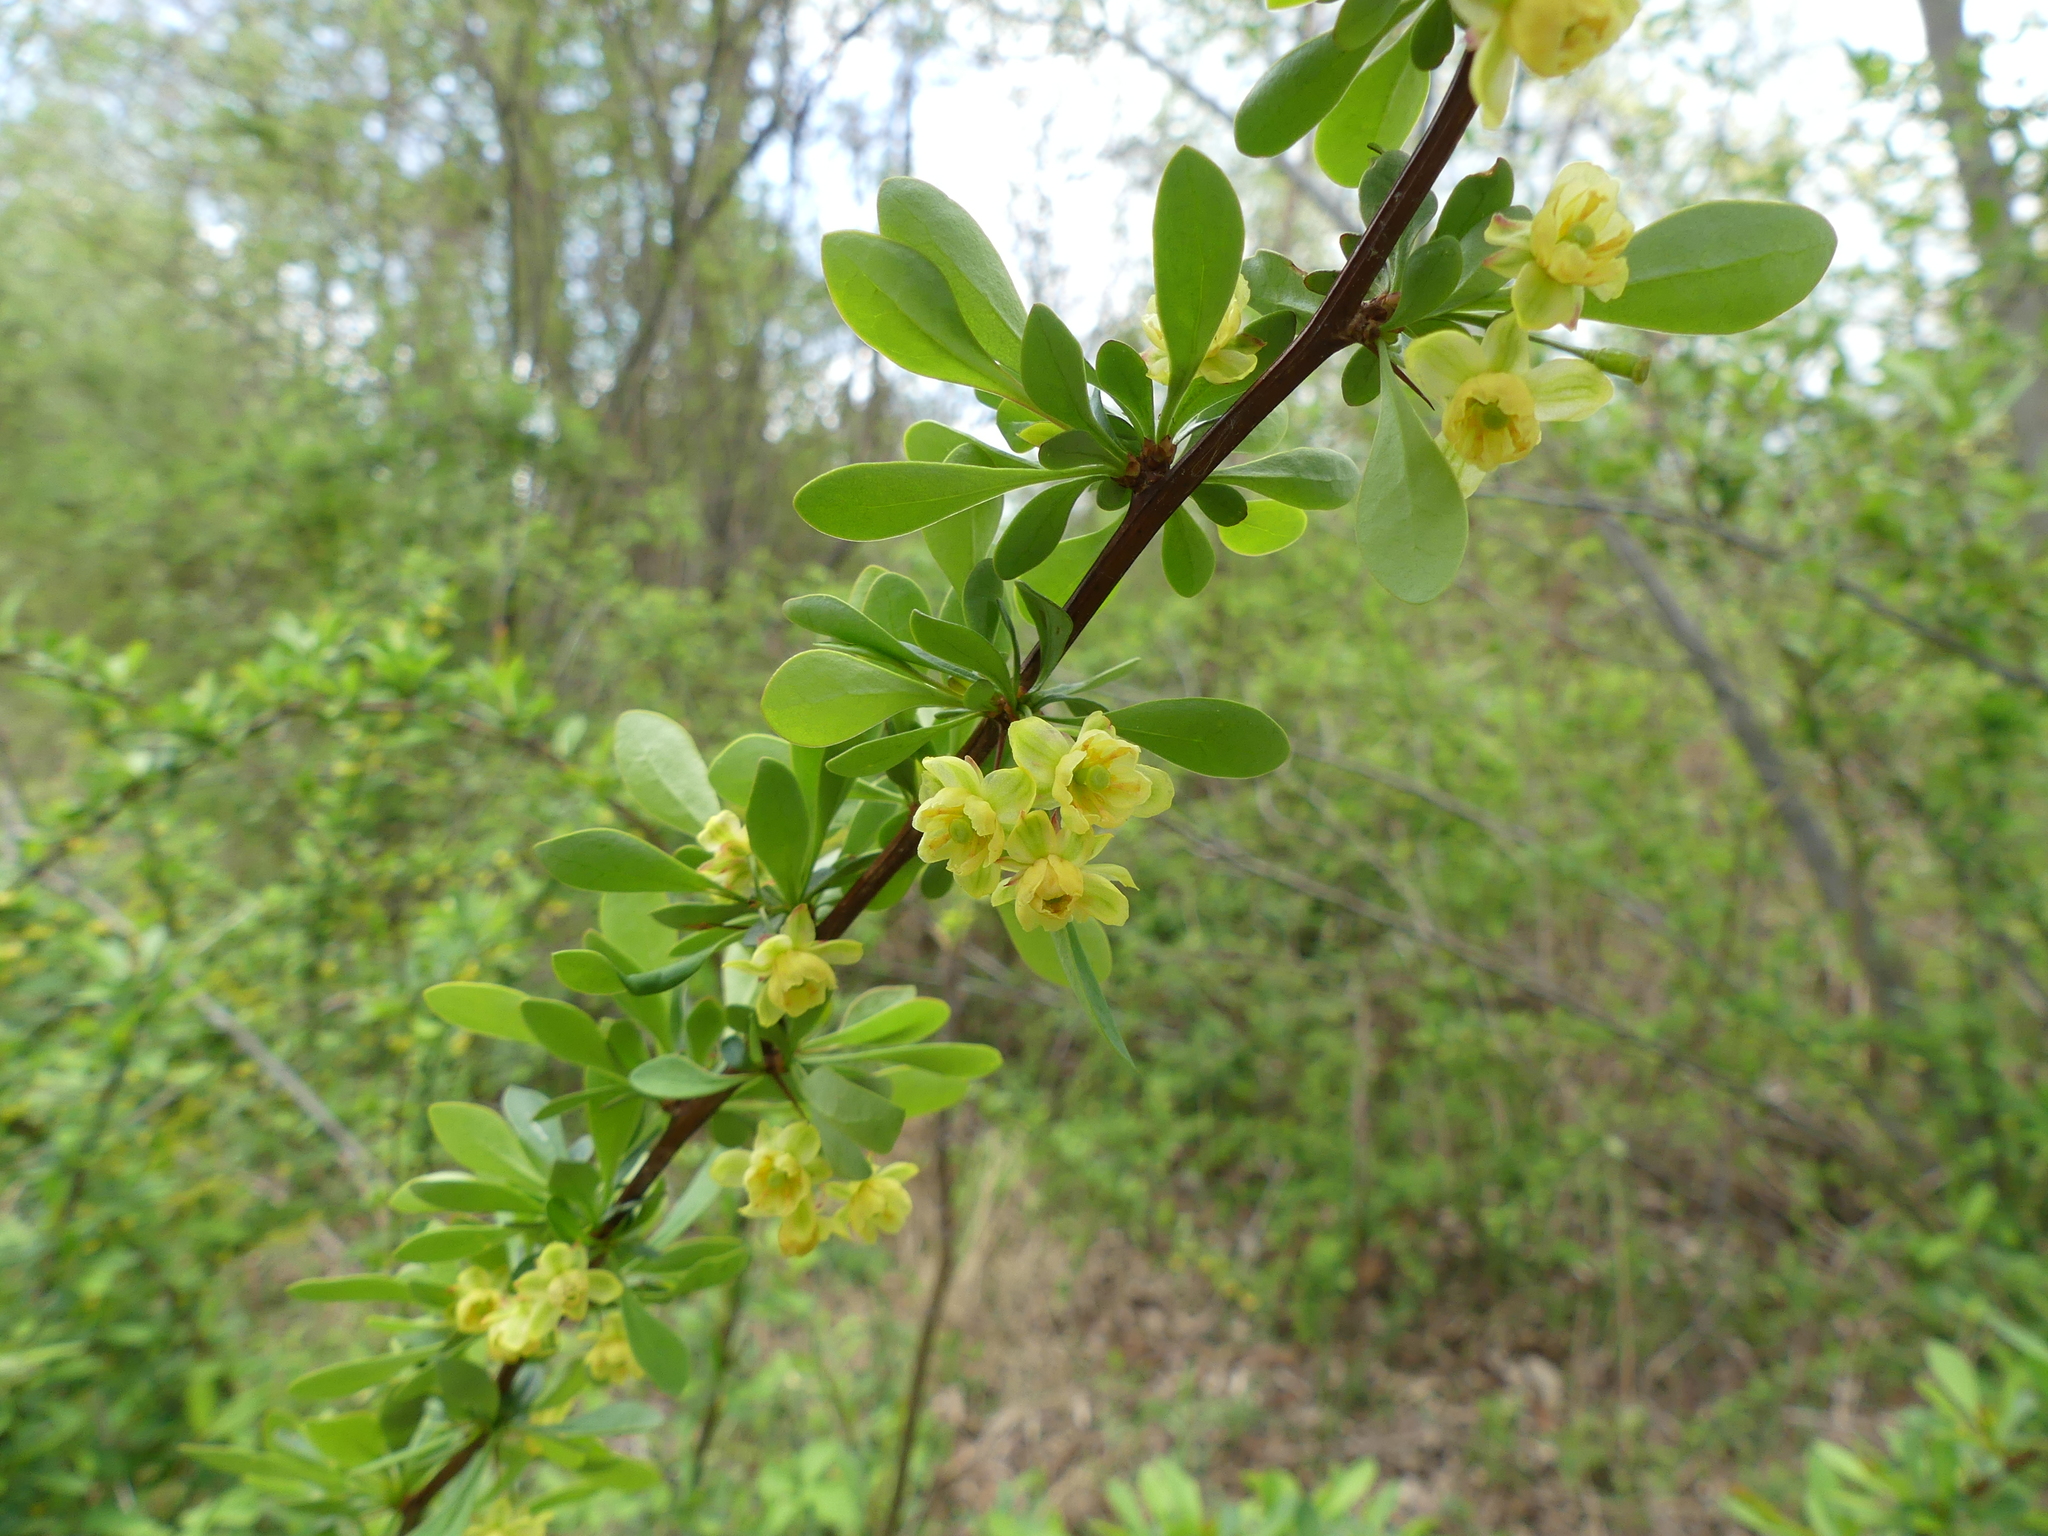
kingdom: Plantae
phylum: Tracheophyta
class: Magnoliopsida
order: Ranunculales
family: Berberidaceae
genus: Berberis
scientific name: Berberis thunbergii
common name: Japanese barberry
